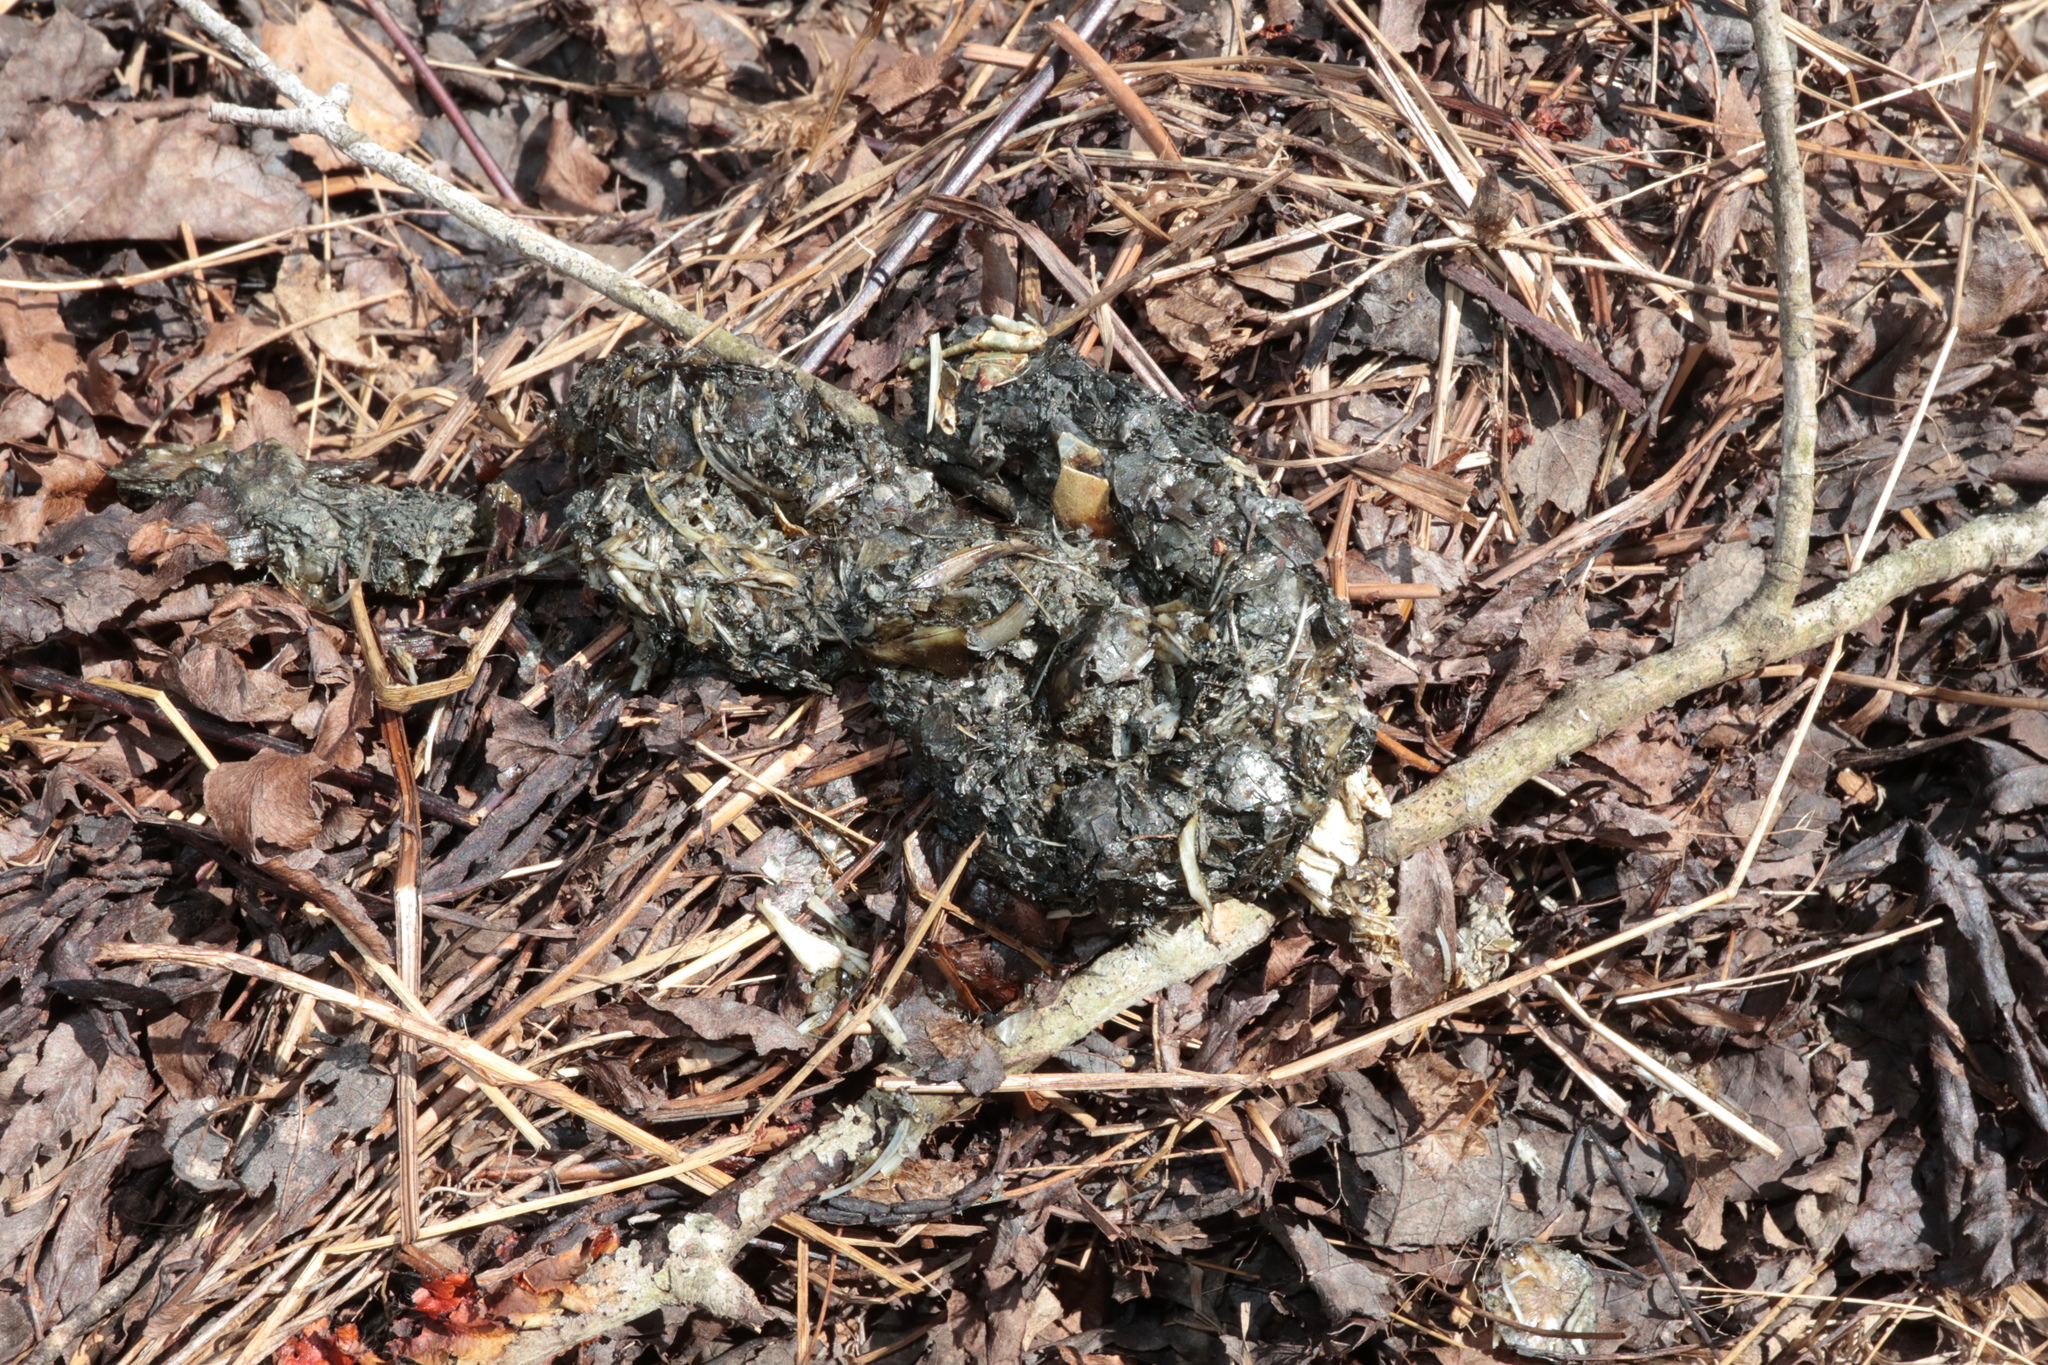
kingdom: Animalia
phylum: Chordata
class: Mammalia
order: Carnivora
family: Mustelidae
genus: Lontra
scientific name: Lontra canadensis
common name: North american river otter
